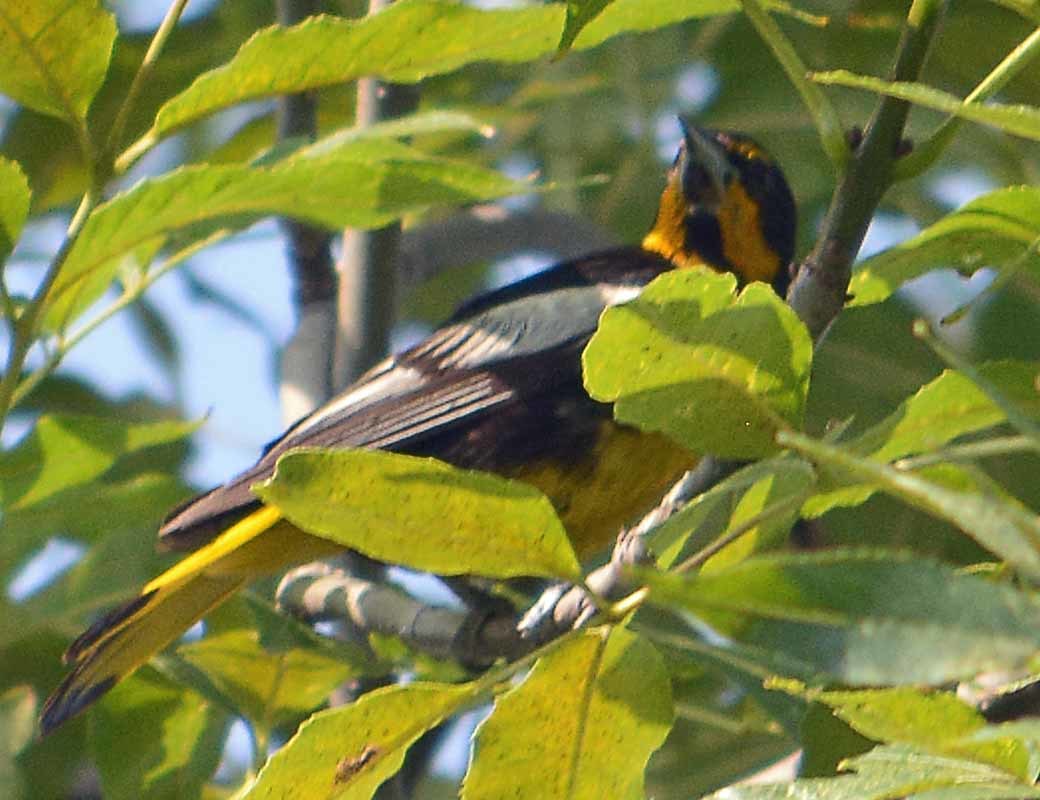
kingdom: Animalia
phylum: Chordata
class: Aves
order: Passeriformes
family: Icteridae
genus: Icterus
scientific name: Icterus abeillei
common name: Black-backed oriole
